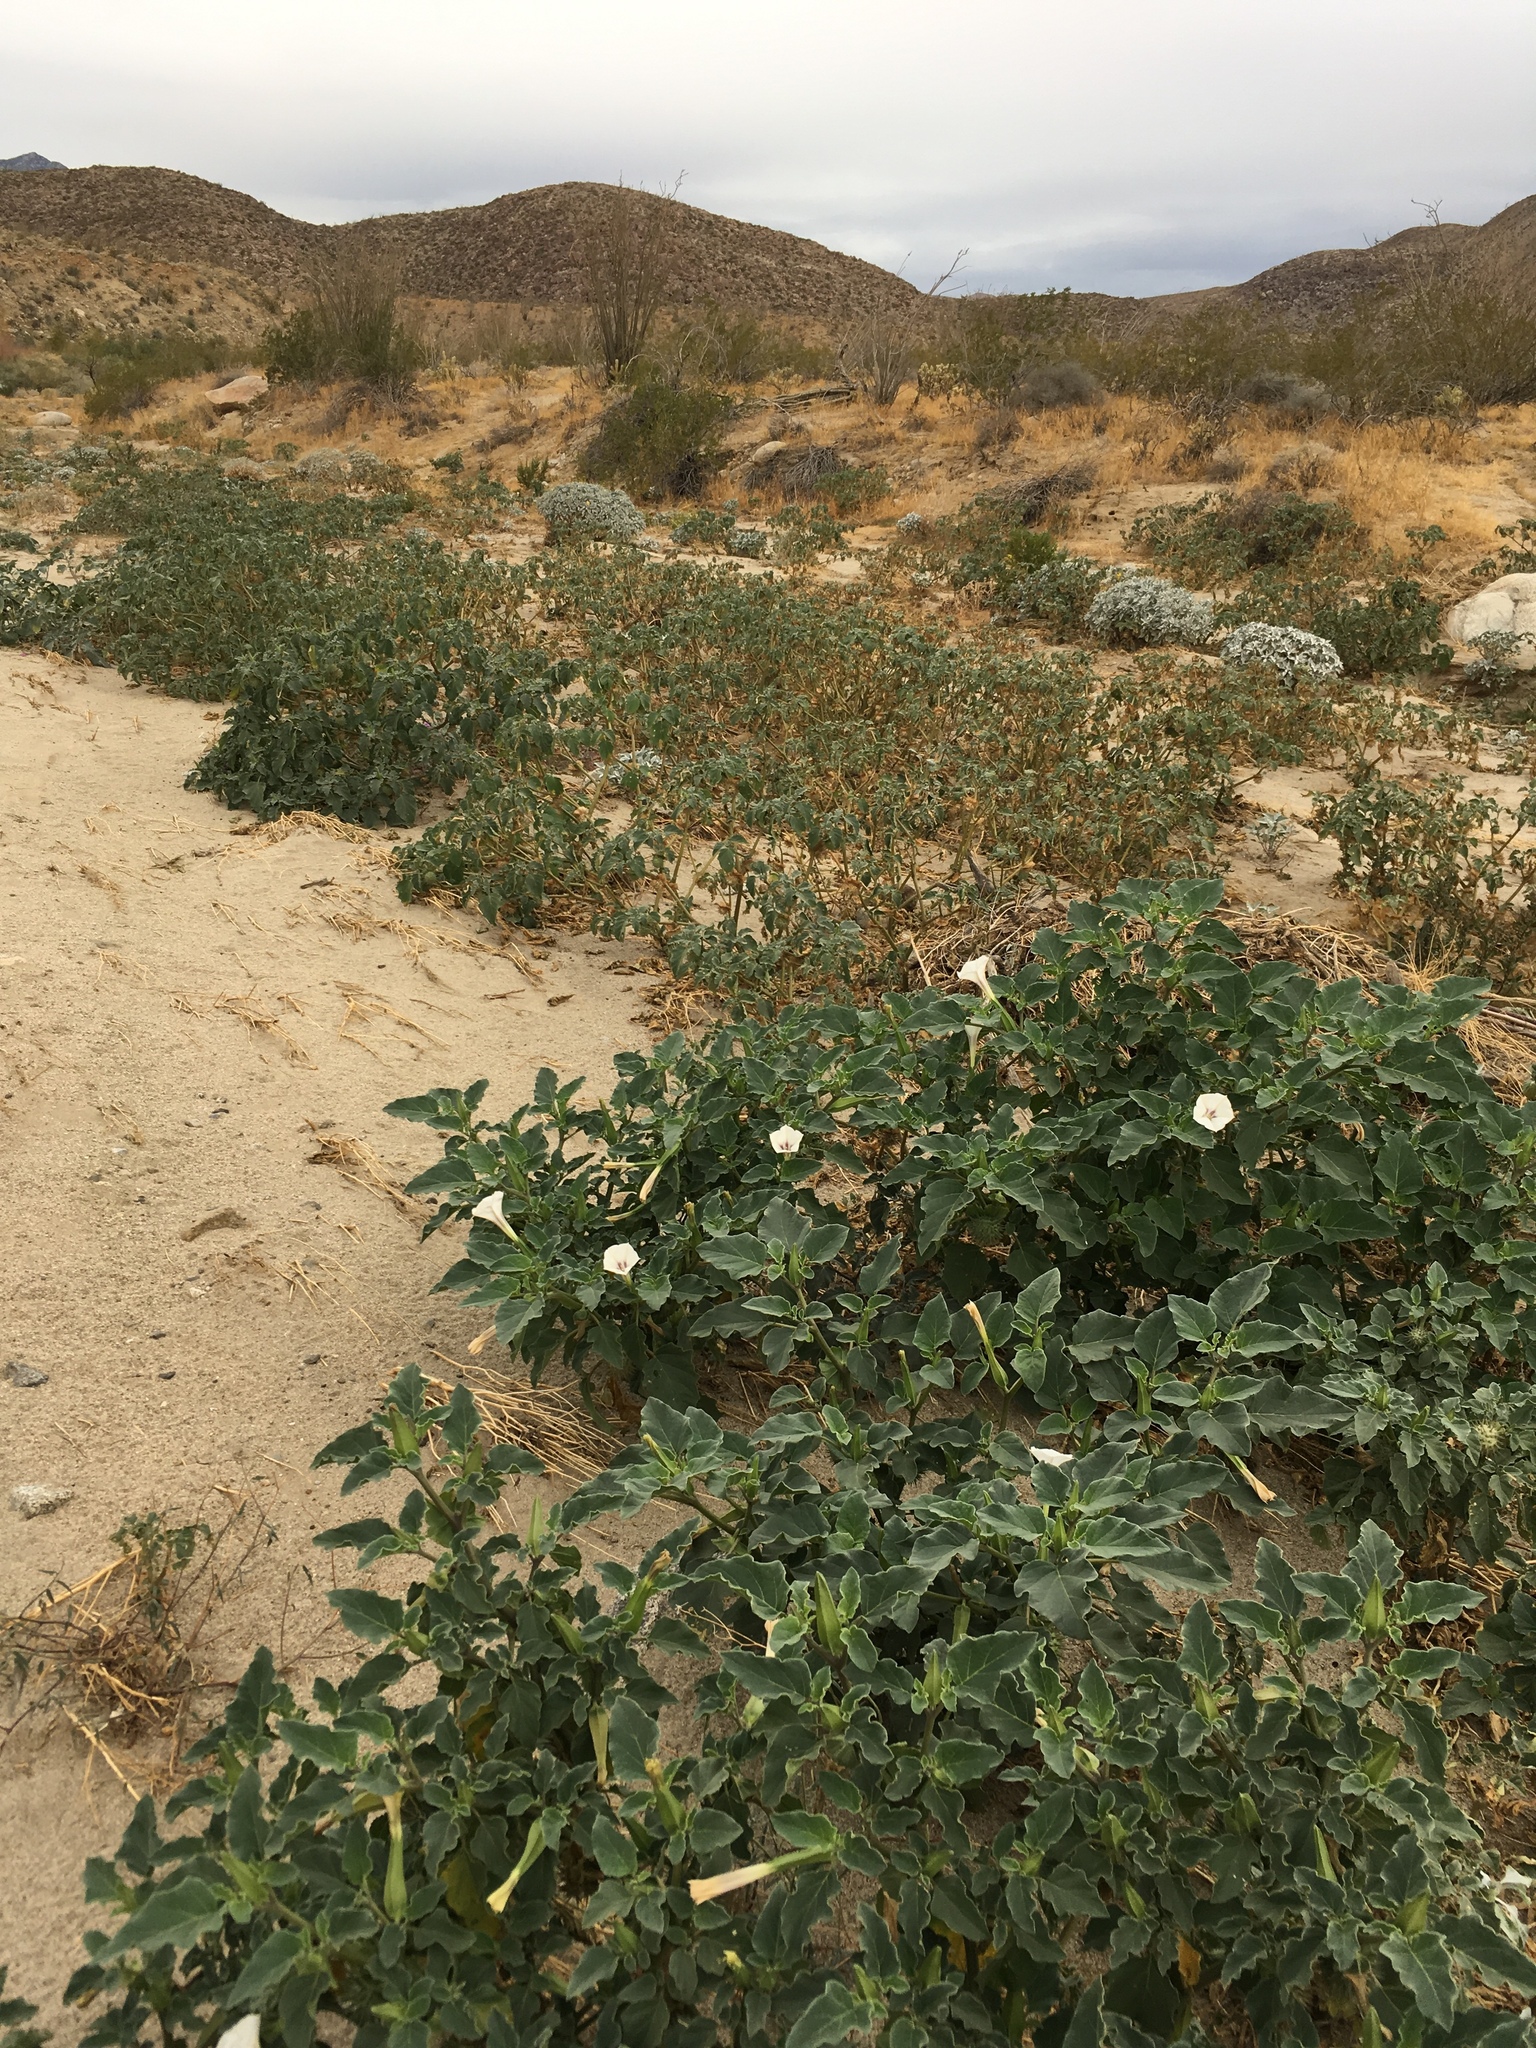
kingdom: Plantae
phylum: Tracheophyta
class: Magnoliopsida
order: Solanales
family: Solanaceae
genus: Datura
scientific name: Datura discolor
